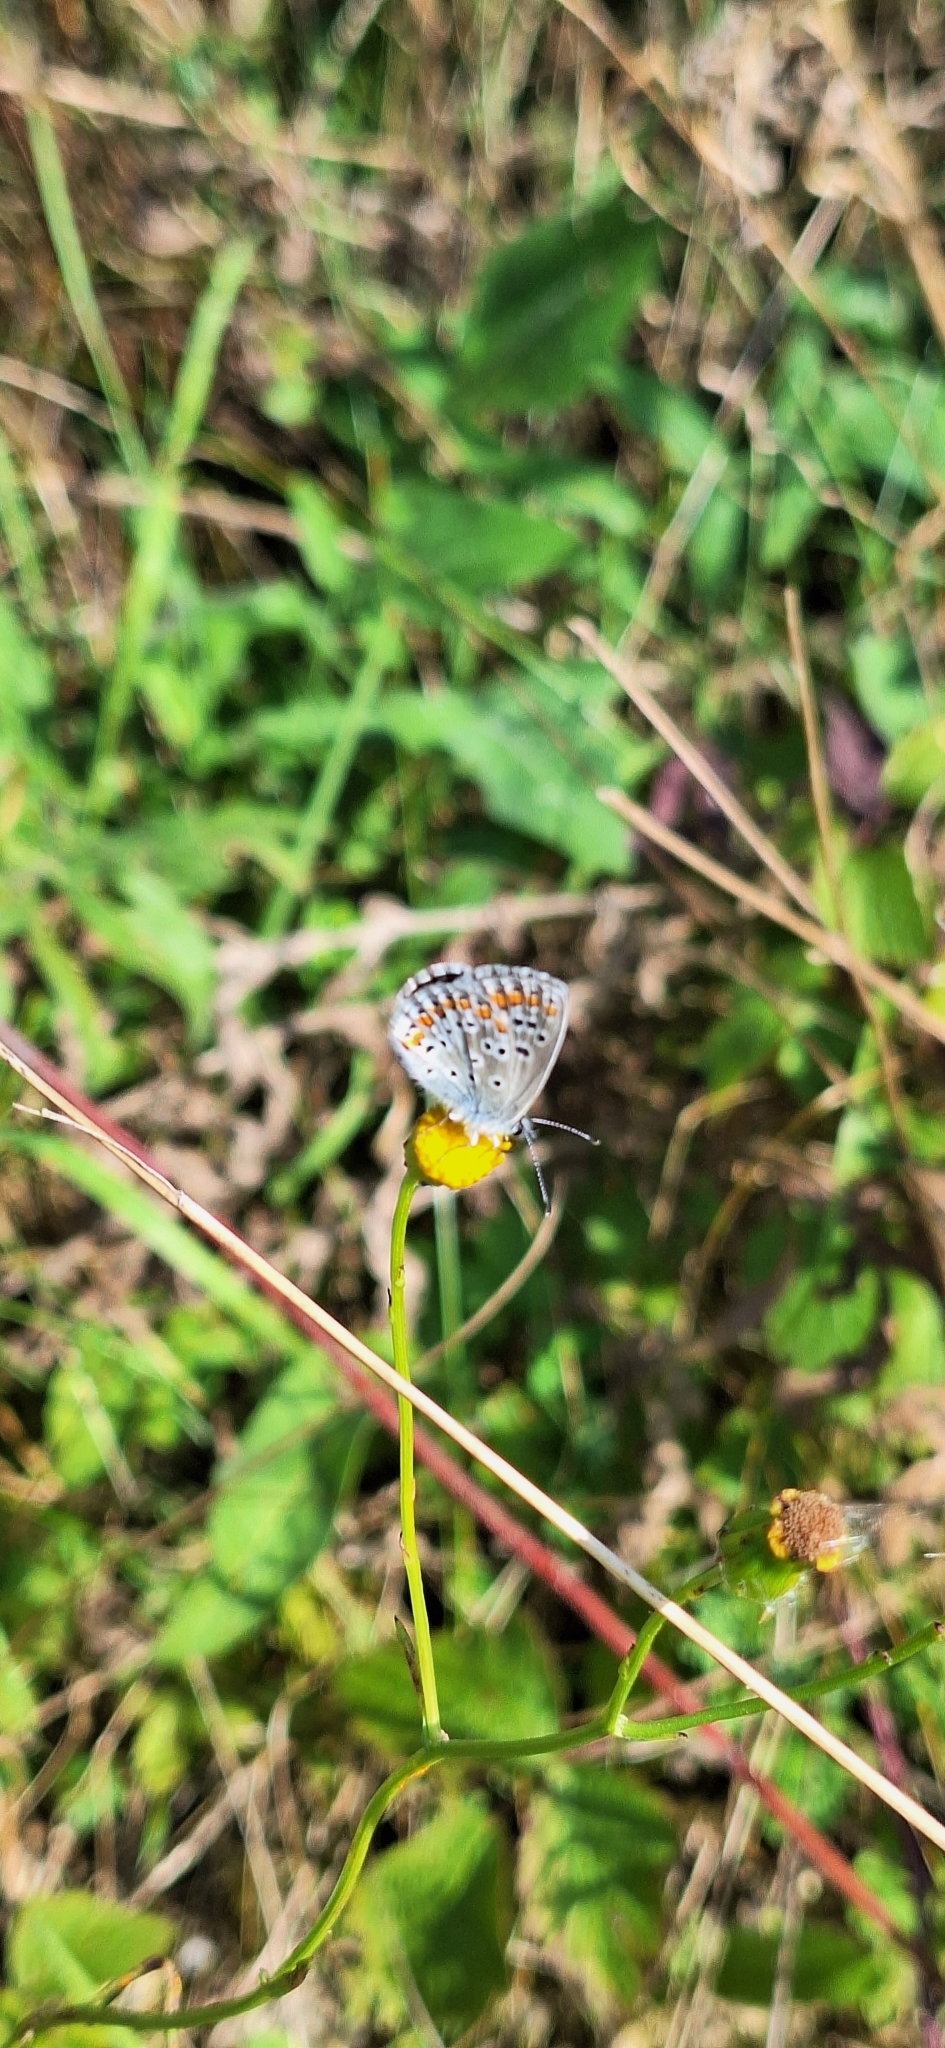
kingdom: Animalia
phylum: Arthropoda
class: Insecta
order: Lepidoptera
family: Lycaenidae
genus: Aricia
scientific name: Aricia agestis
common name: Brown argus
